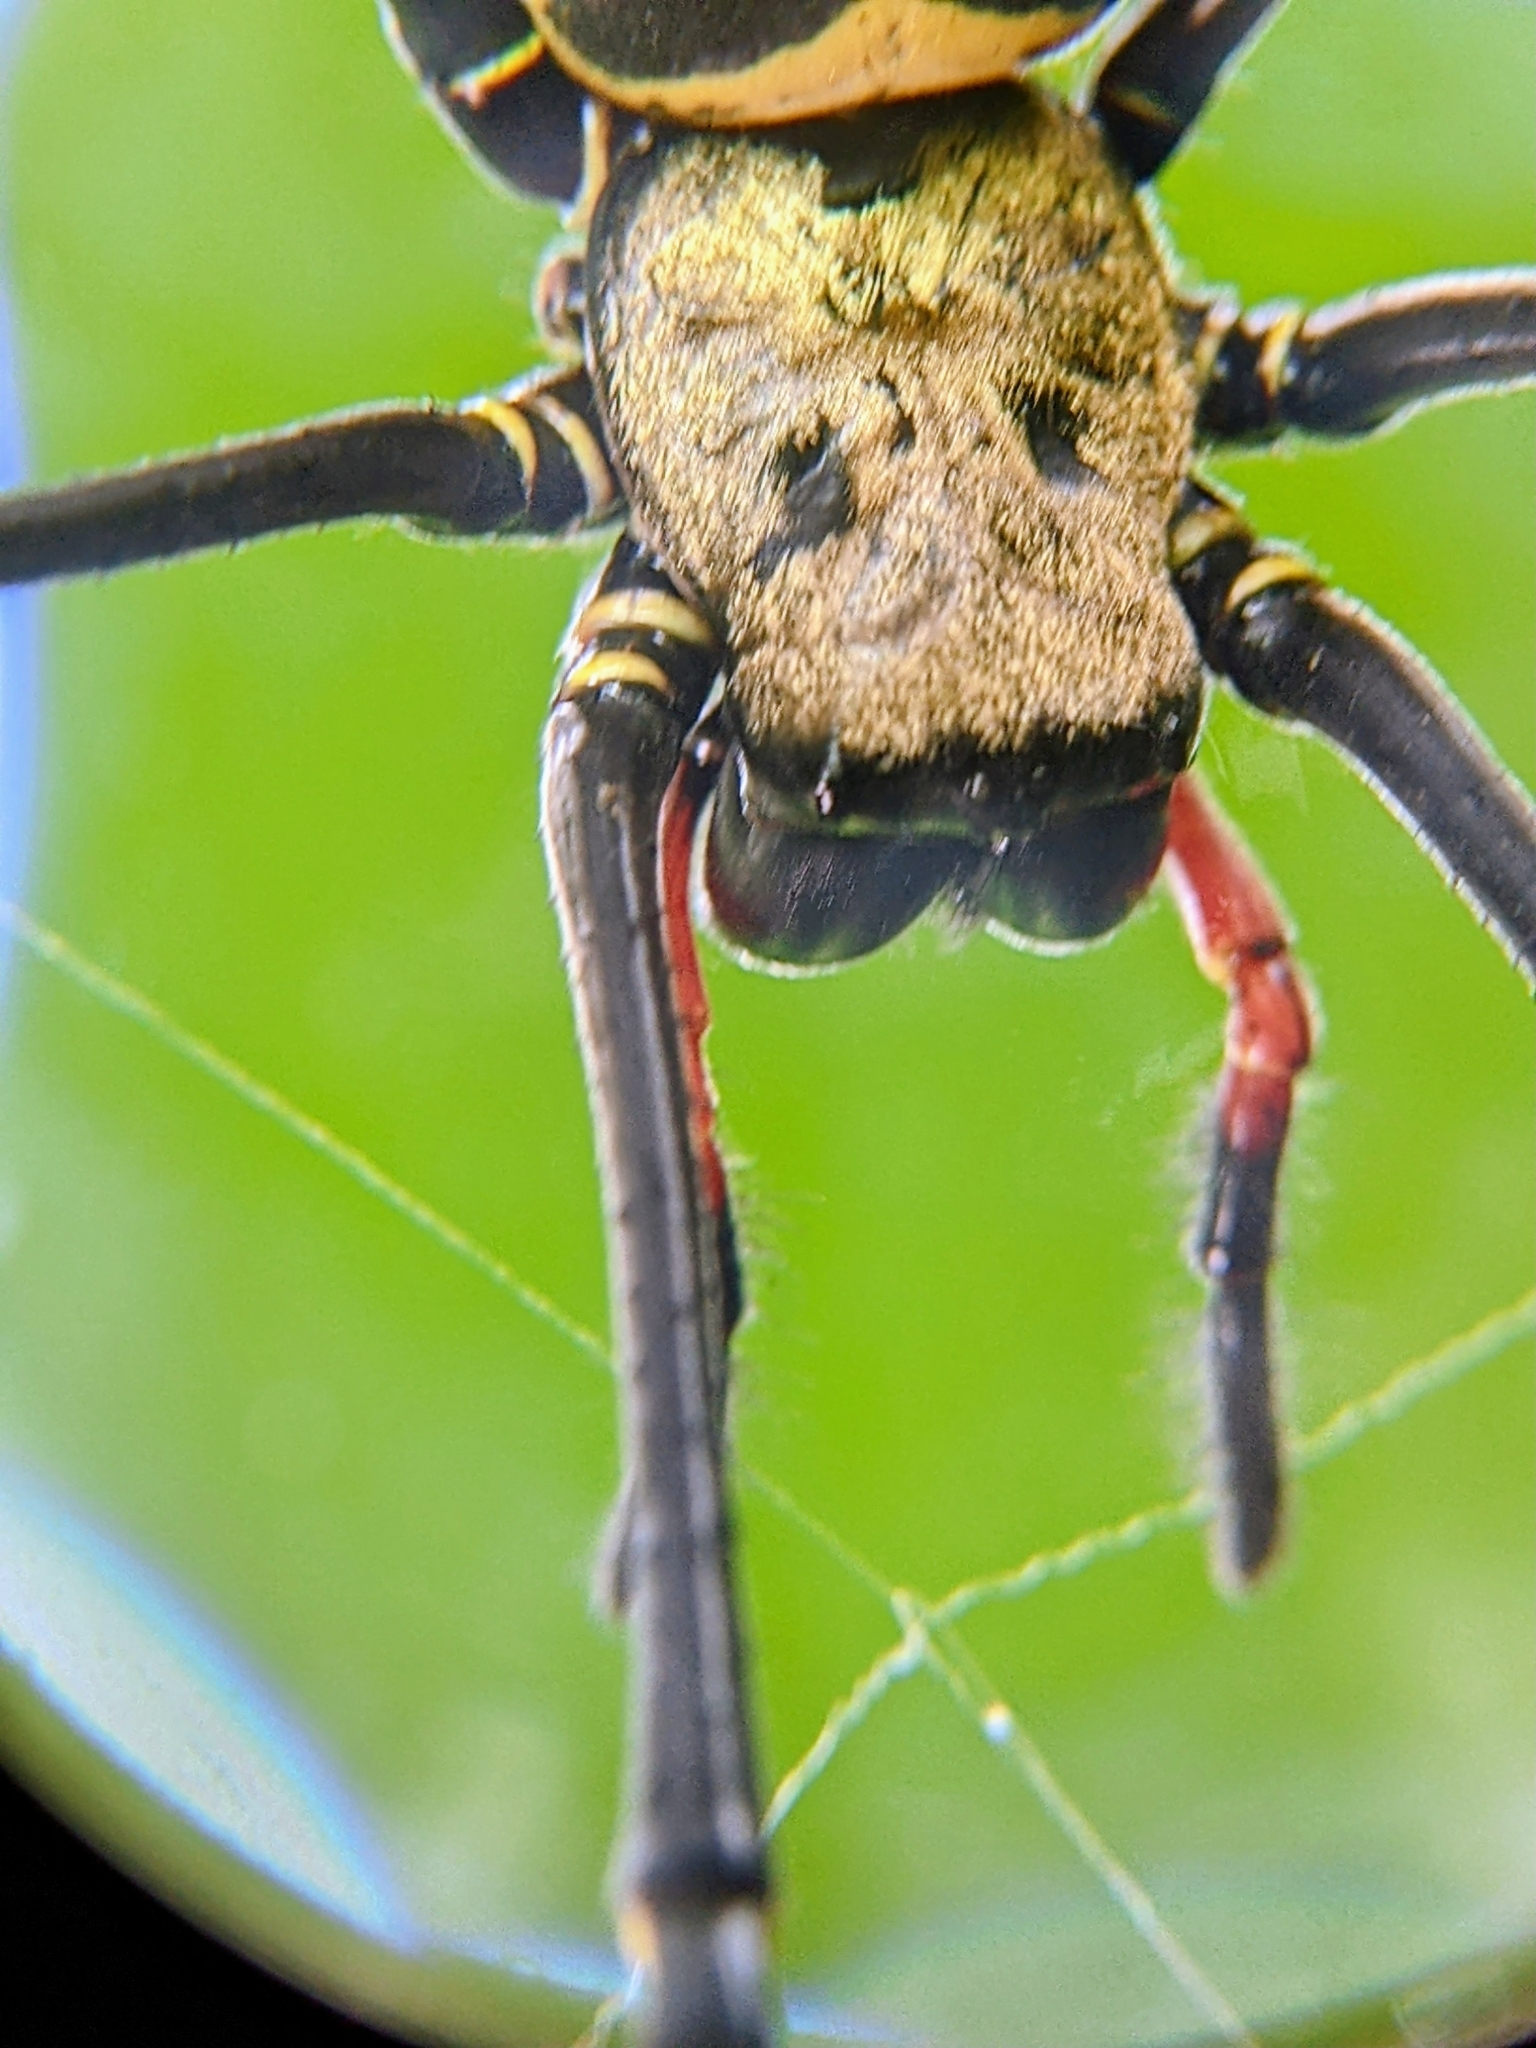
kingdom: Animalia
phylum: Arthropoda
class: Arachnida
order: Araneae
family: Araneidae
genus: Nephila
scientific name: Nephila pilipes
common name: Giant golden orb weaver
